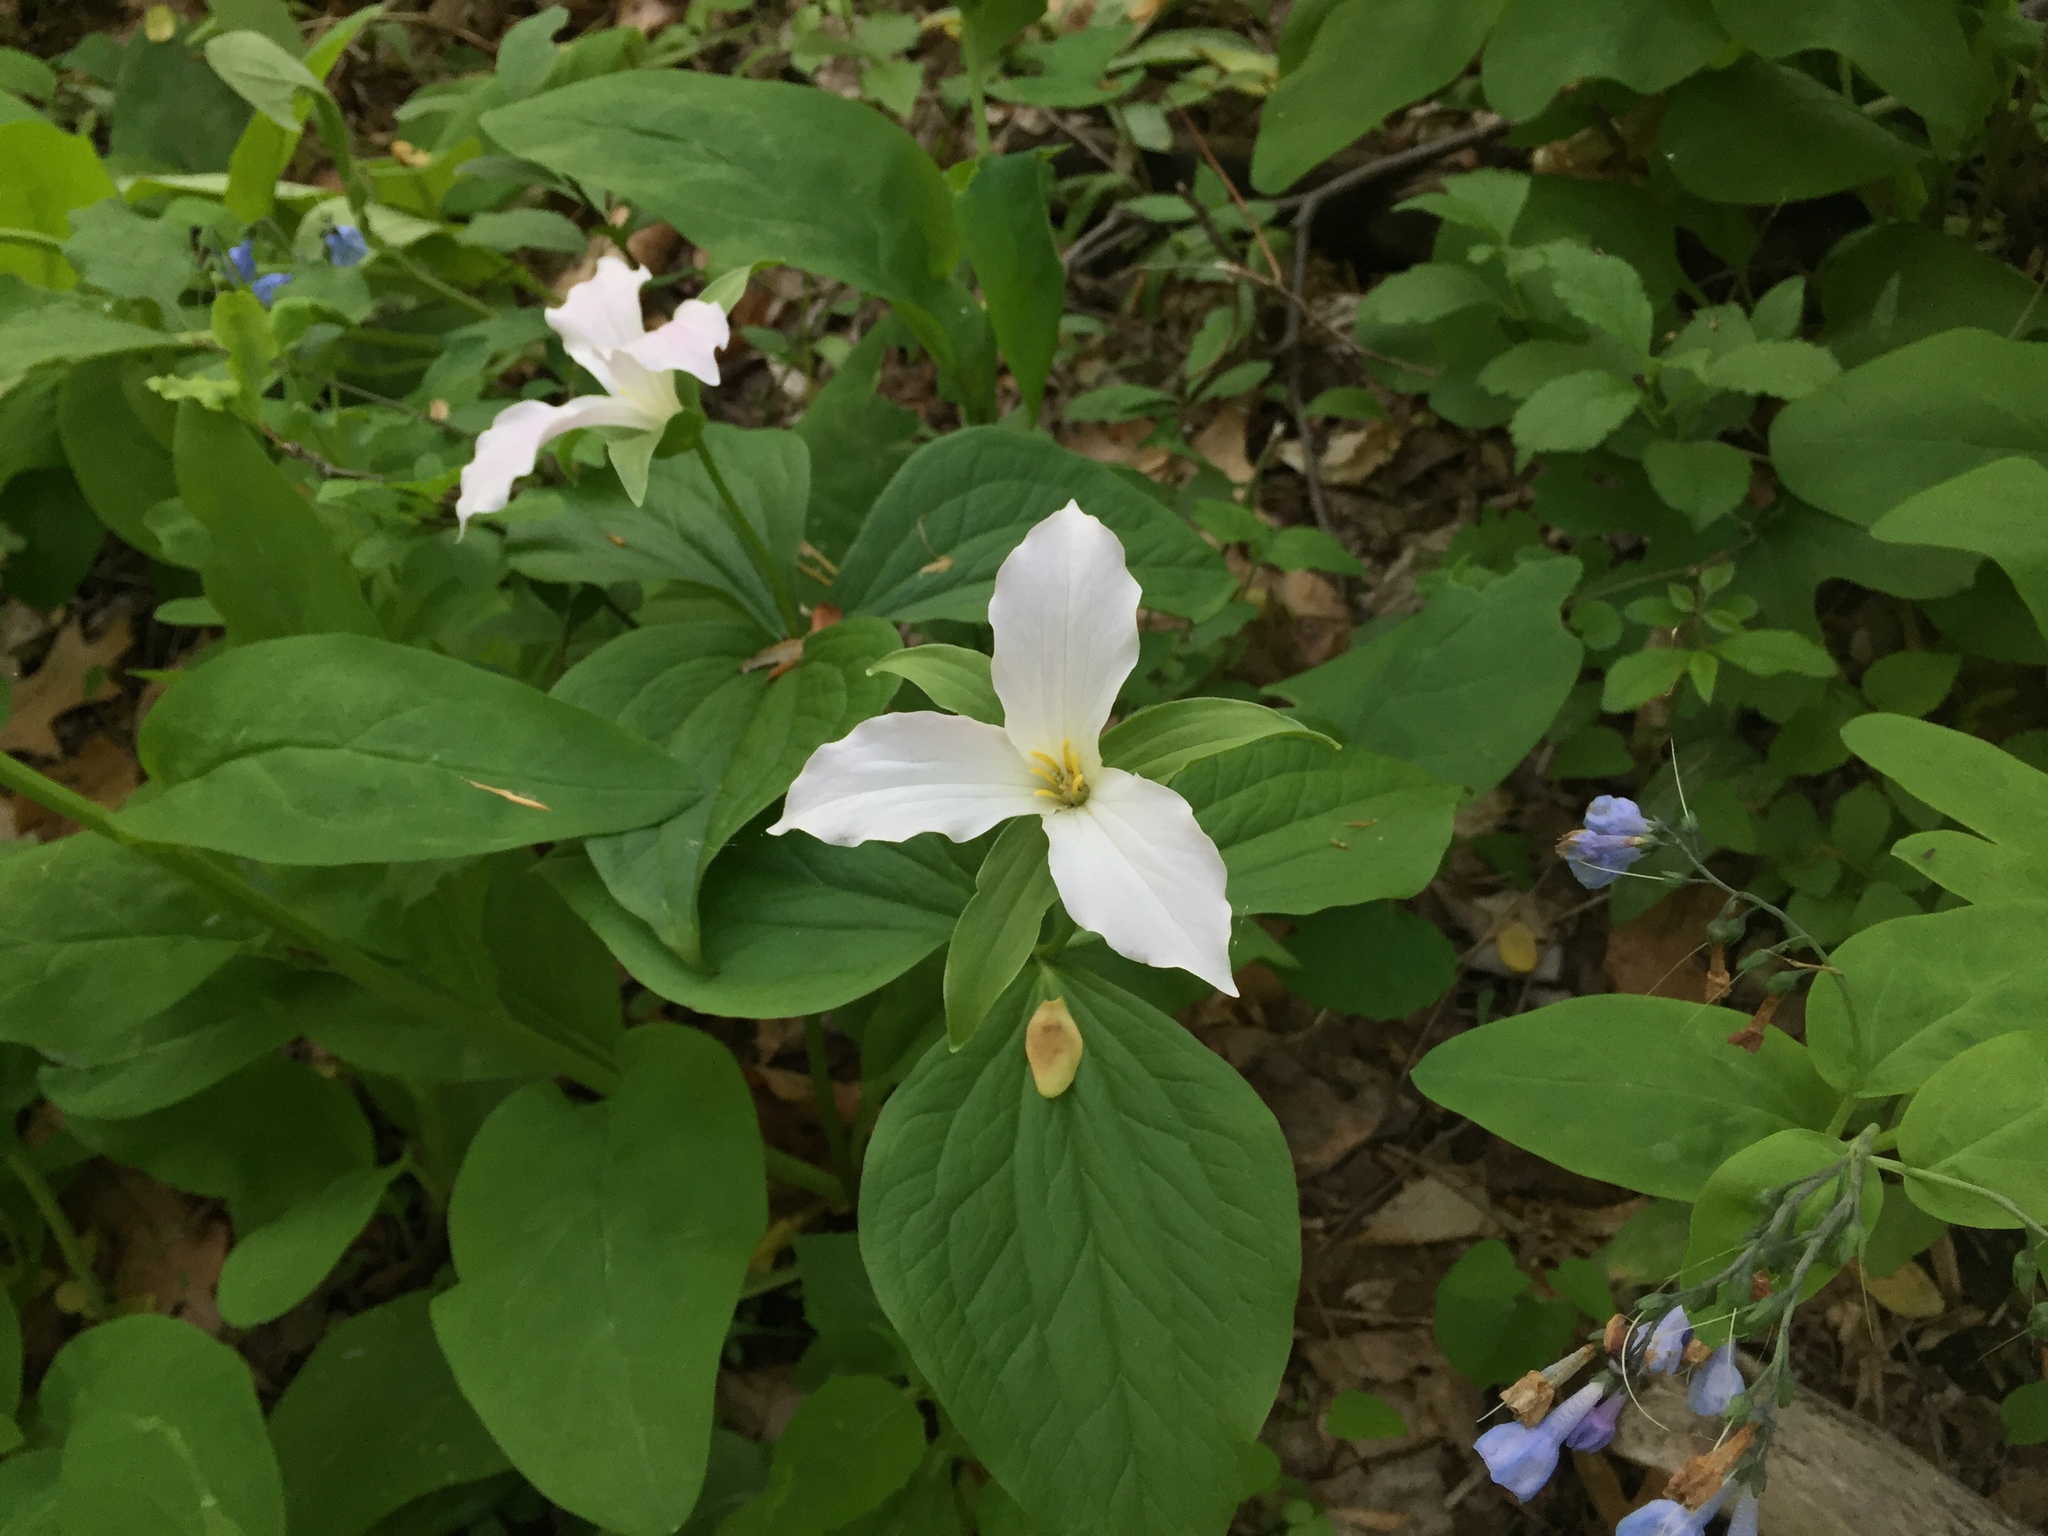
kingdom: Plantae
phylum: Tracheophyta
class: Liliopsida
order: Liliales
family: Melanthiaceae
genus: Trillium
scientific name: Trillium grandiflorum
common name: Great white trillium
